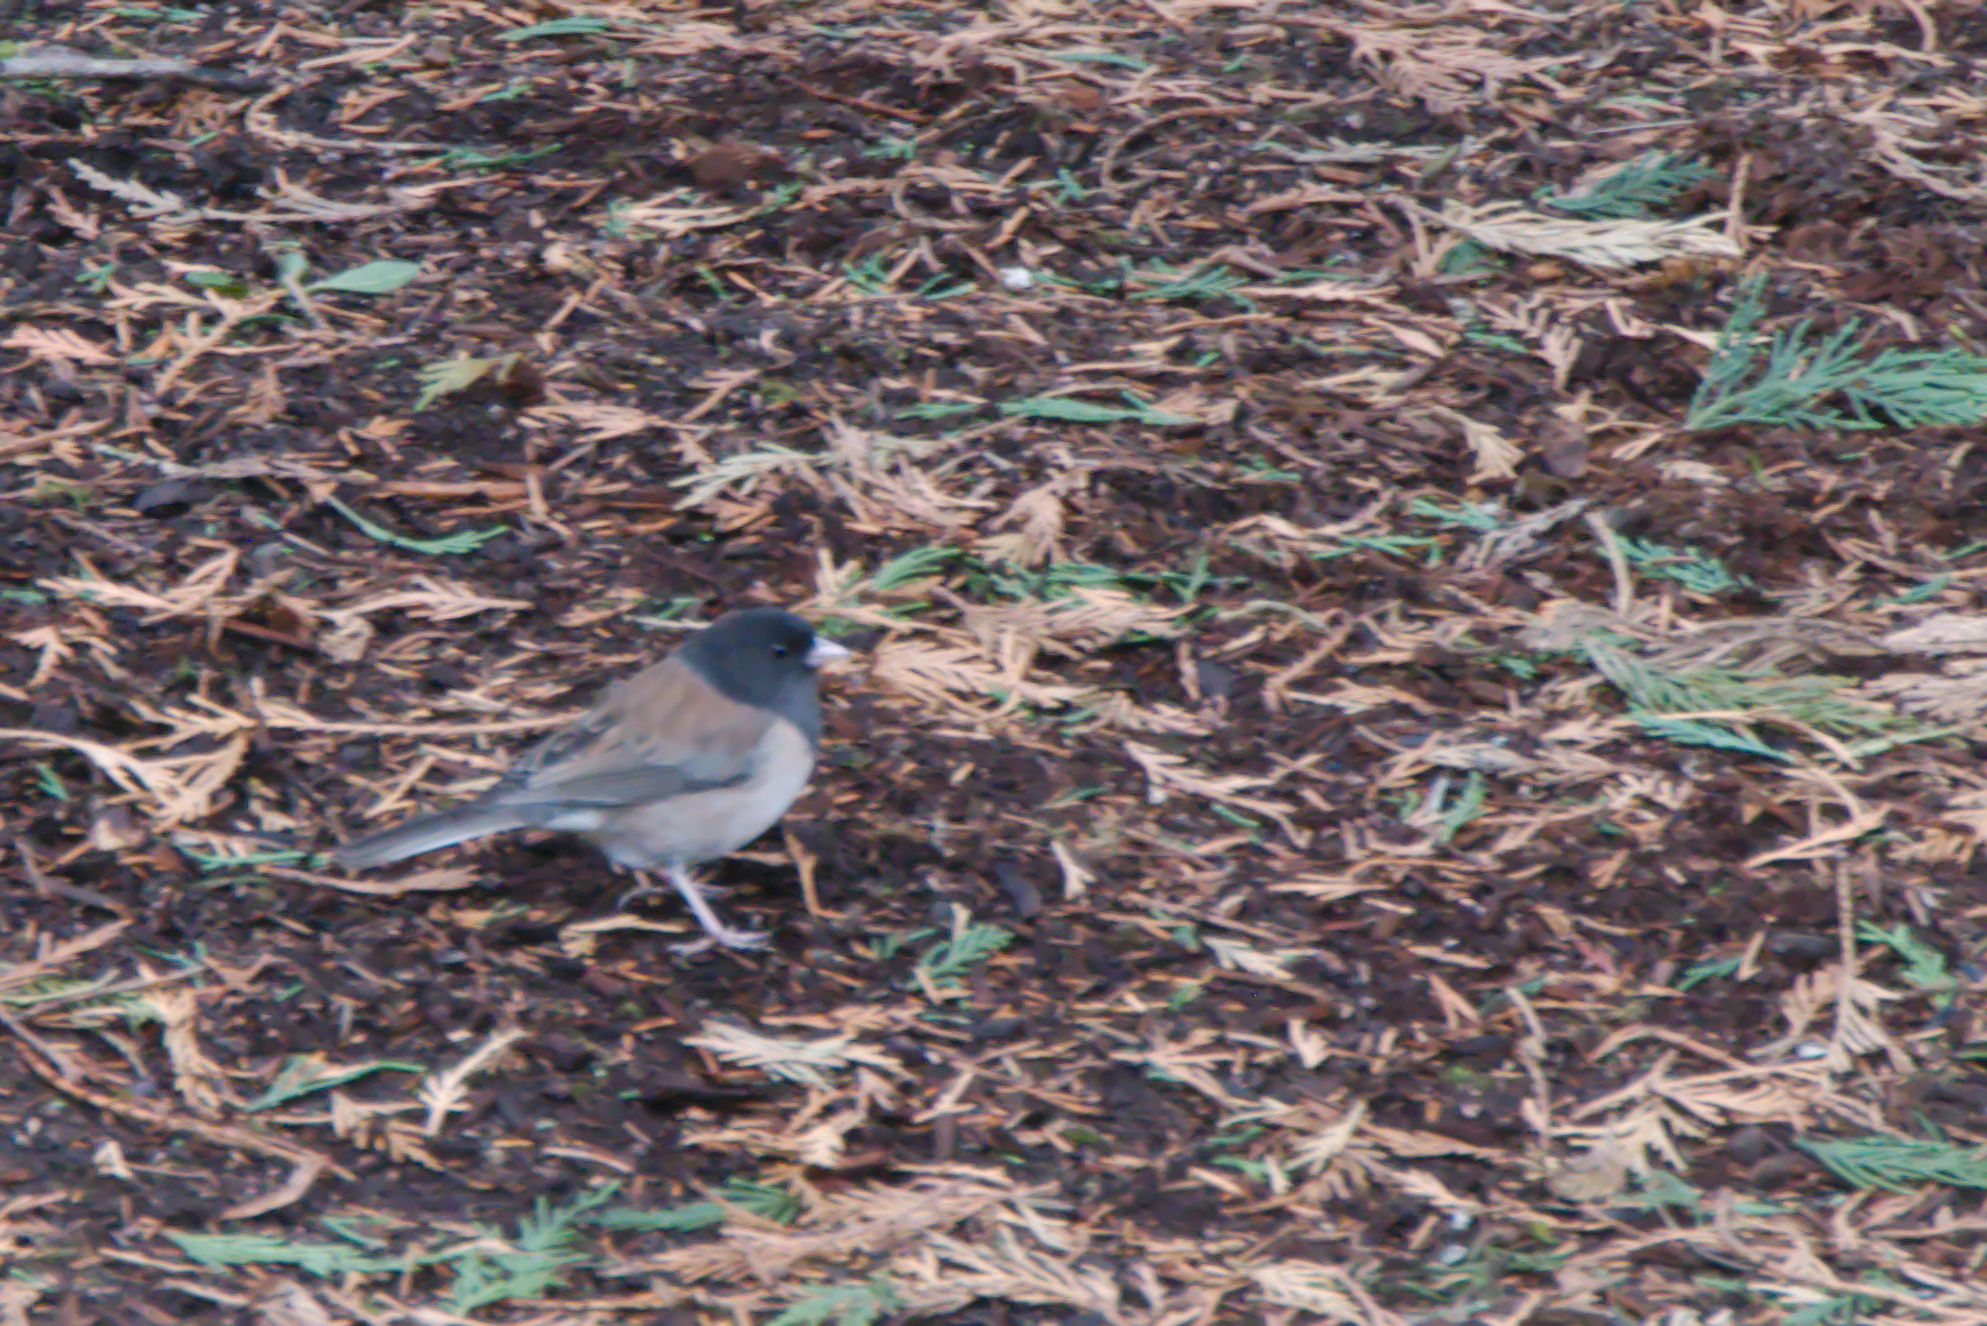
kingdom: Animalia
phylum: Chordata
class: Aves
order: Passeriformes
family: Passerellidae
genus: Junco
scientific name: Junco hyemalis
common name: Dark-eyed junco
